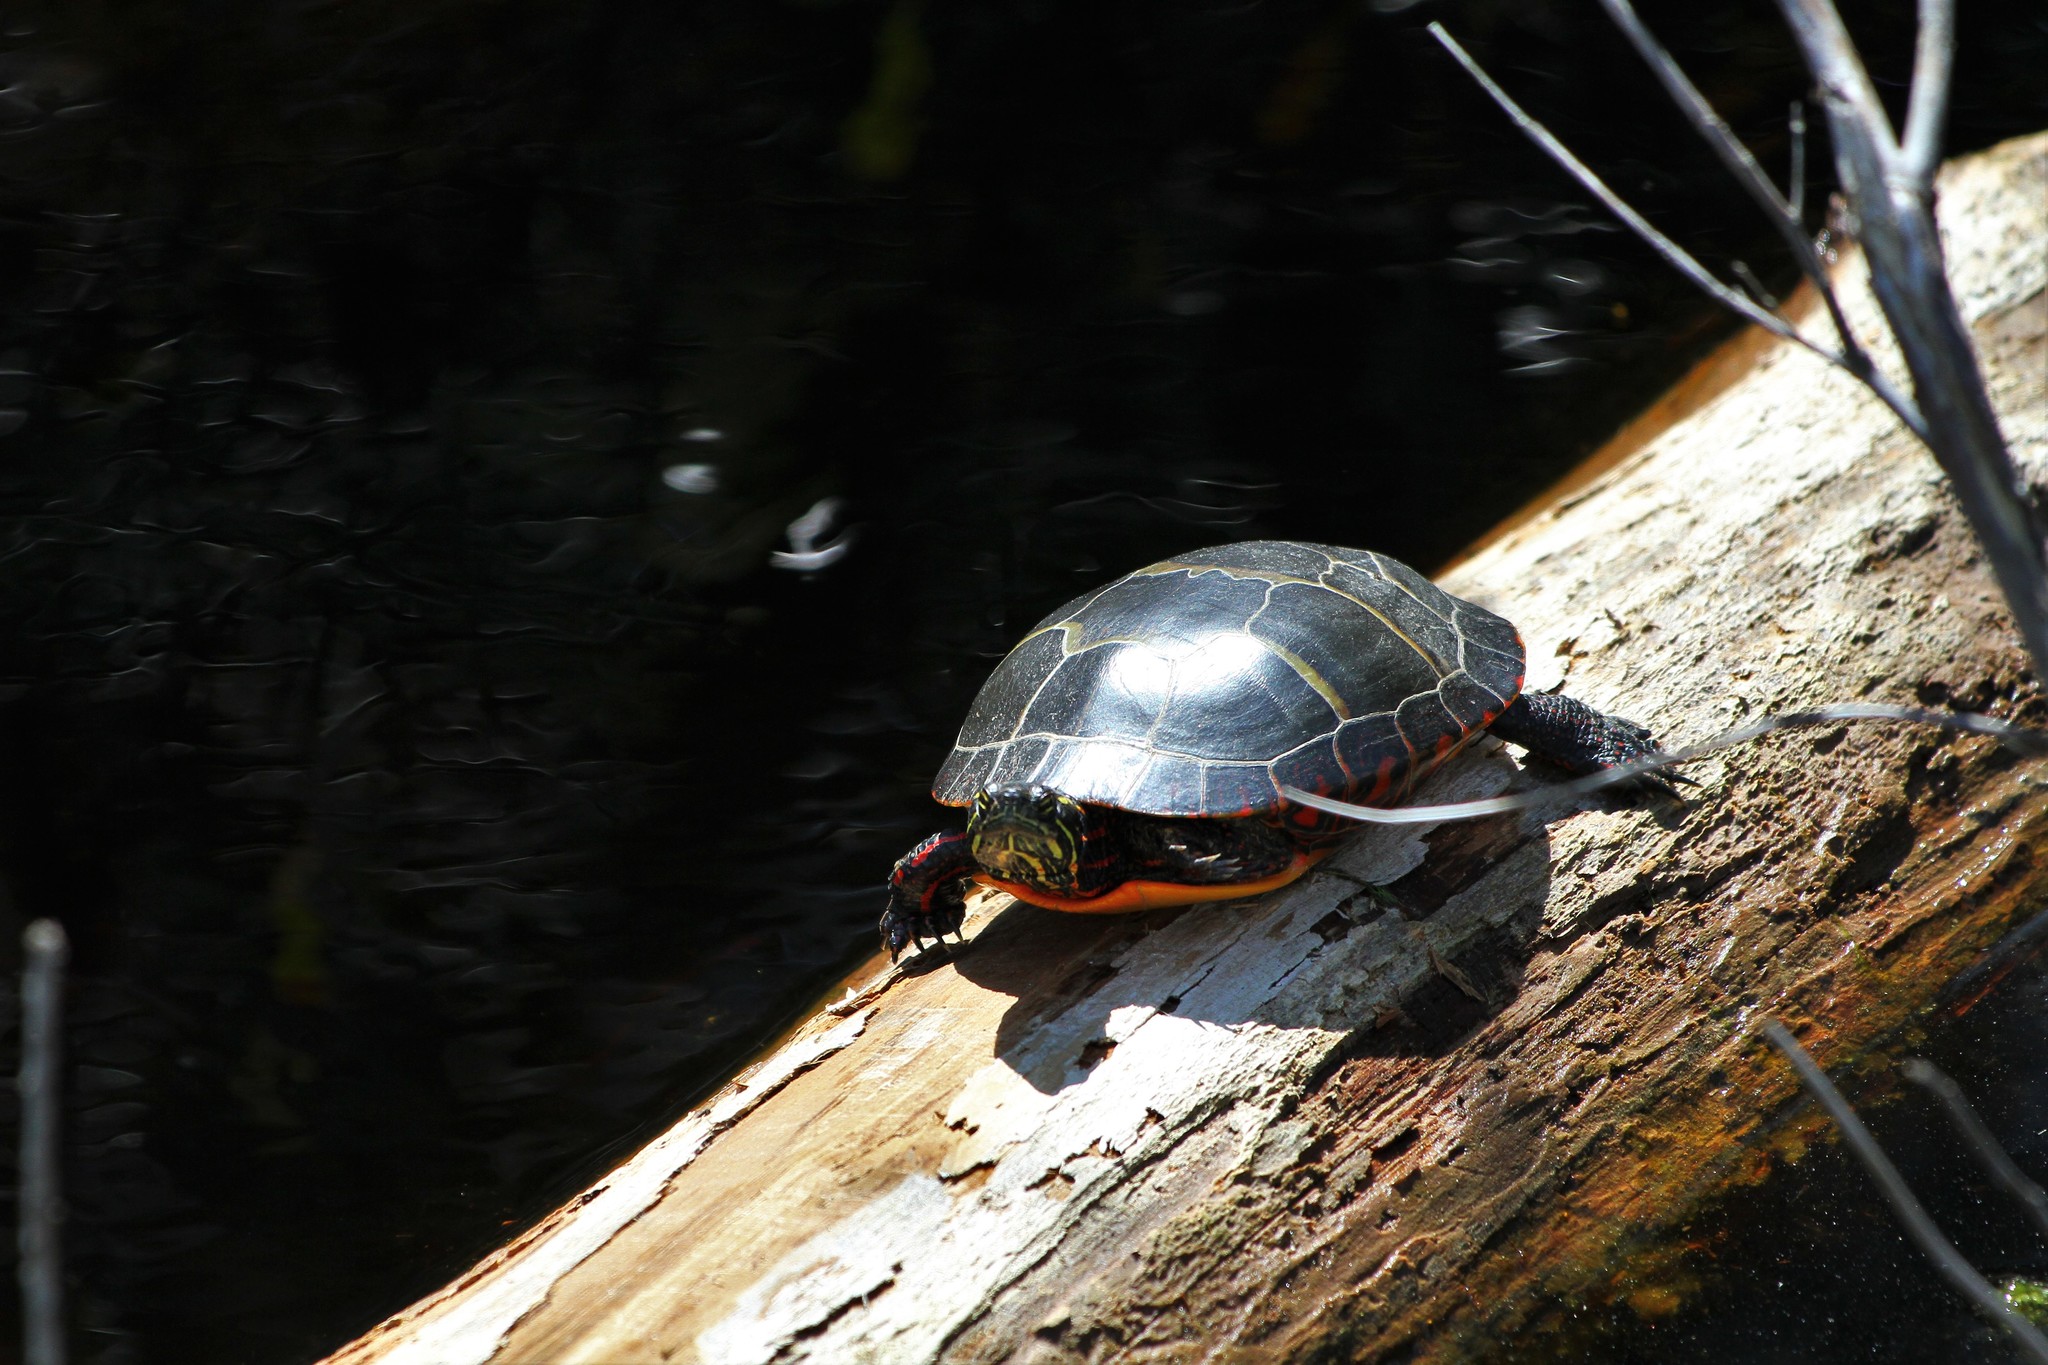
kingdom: Animalia
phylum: Chordata
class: Testudines
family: Emydidae
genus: Chrysemys
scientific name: Chrysemys picta
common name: Painted turtle
